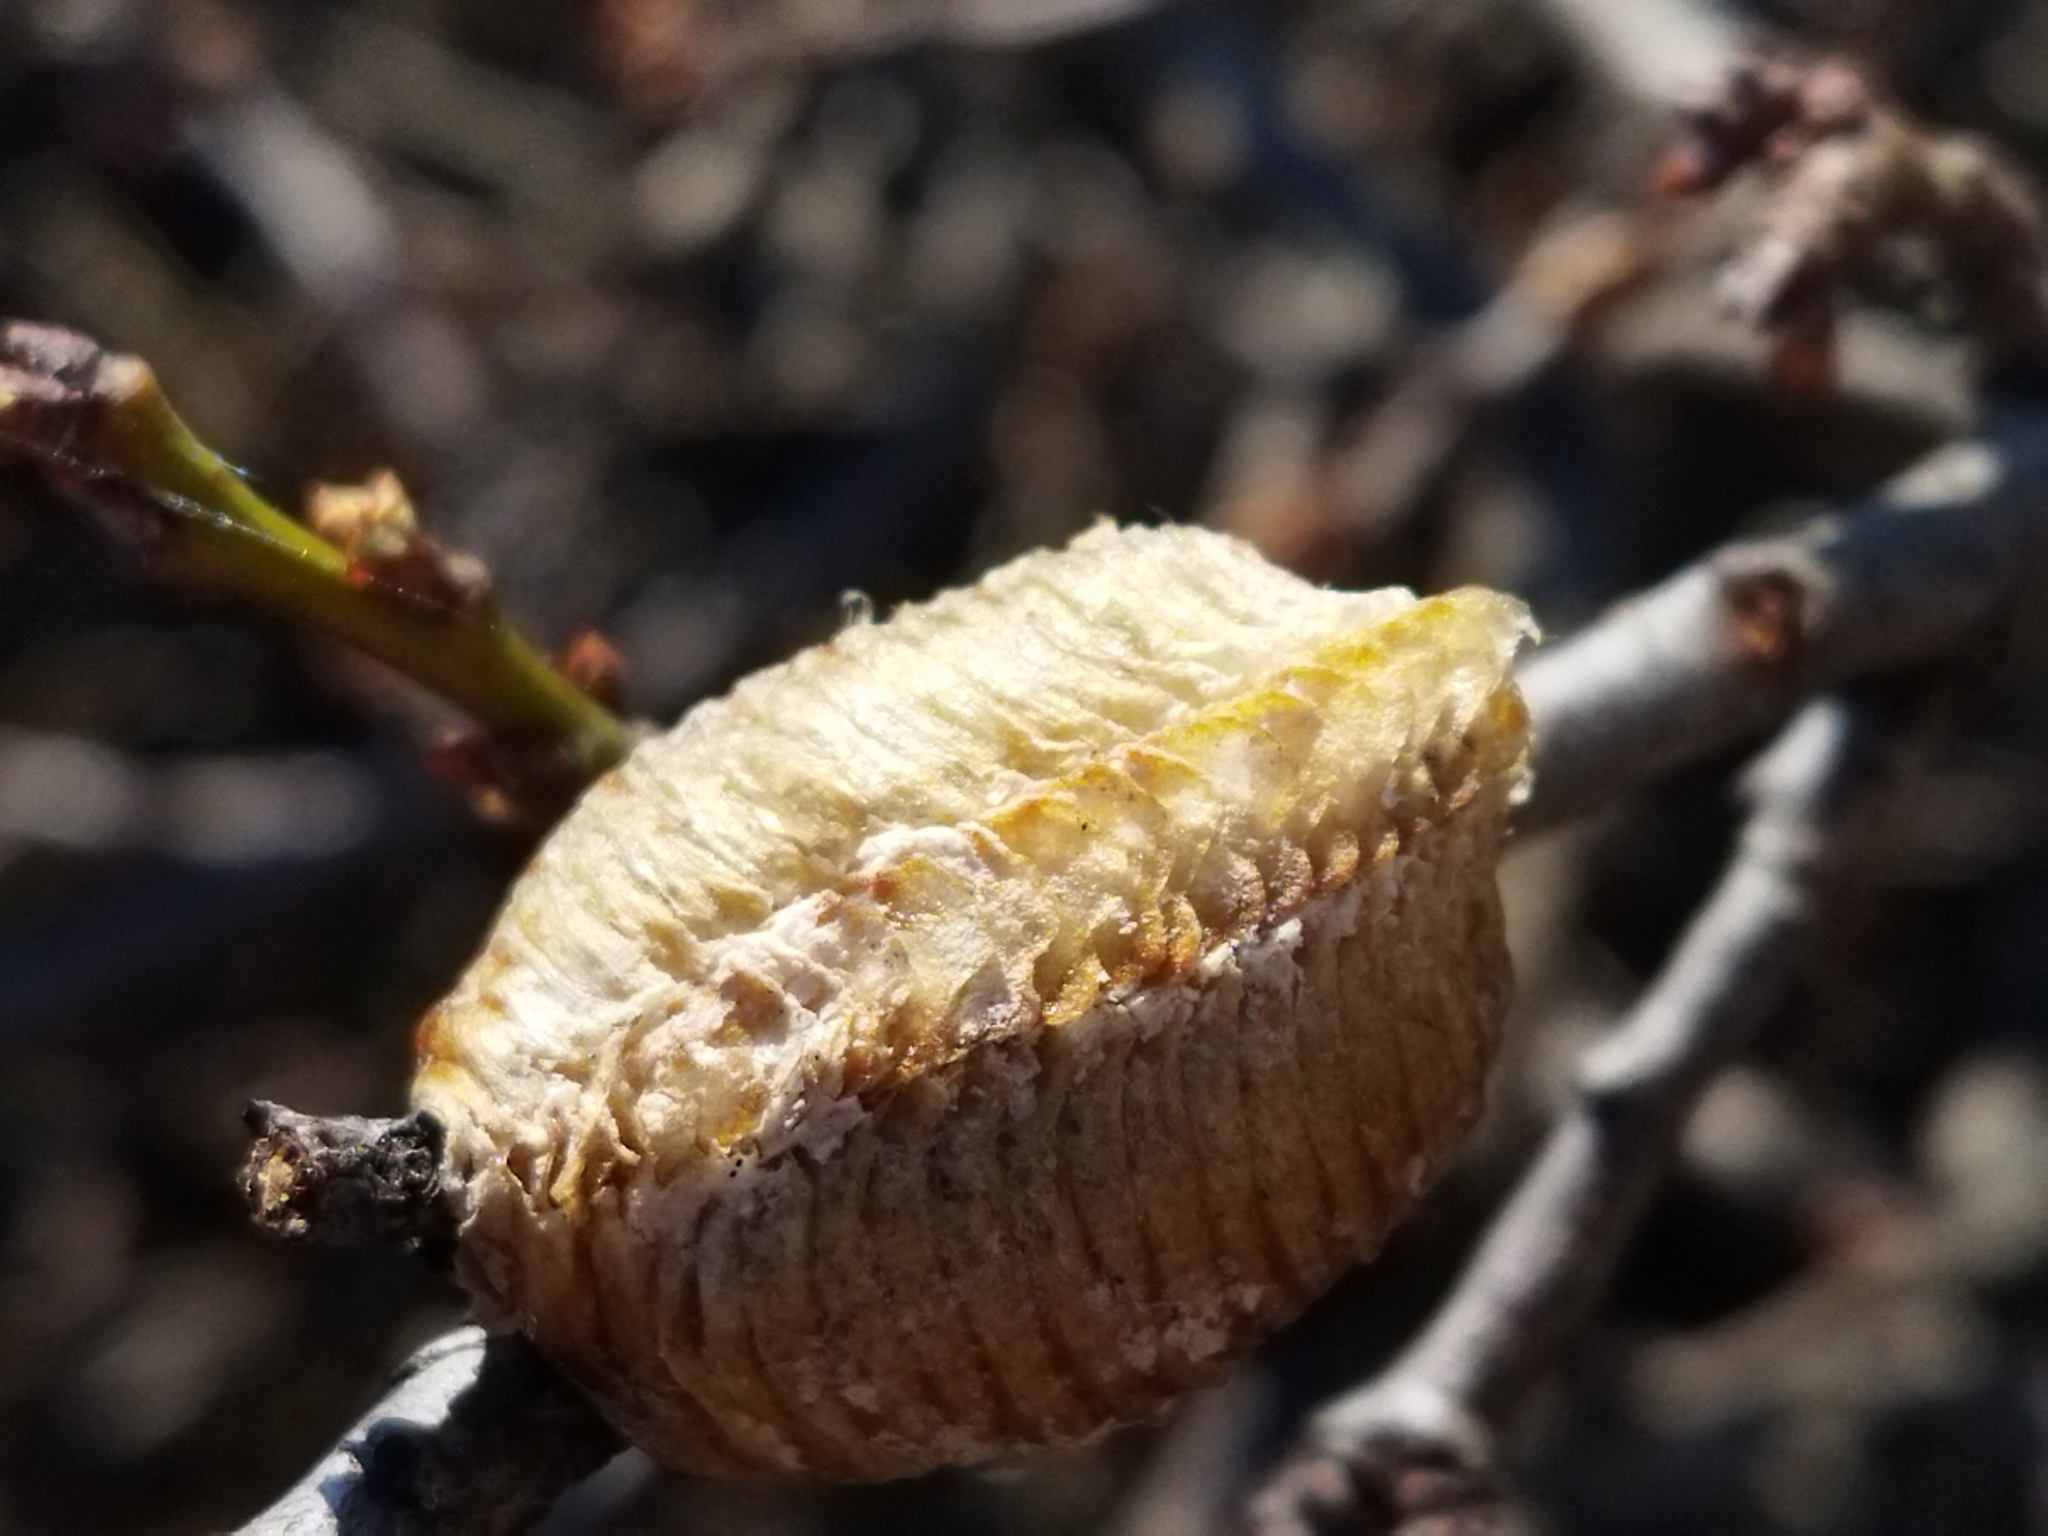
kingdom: Animalia
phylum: Arthropoda
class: Insecta
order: Mantodea
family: Mantidae
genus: Hierodula
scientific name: Hierodula transcaucasica
